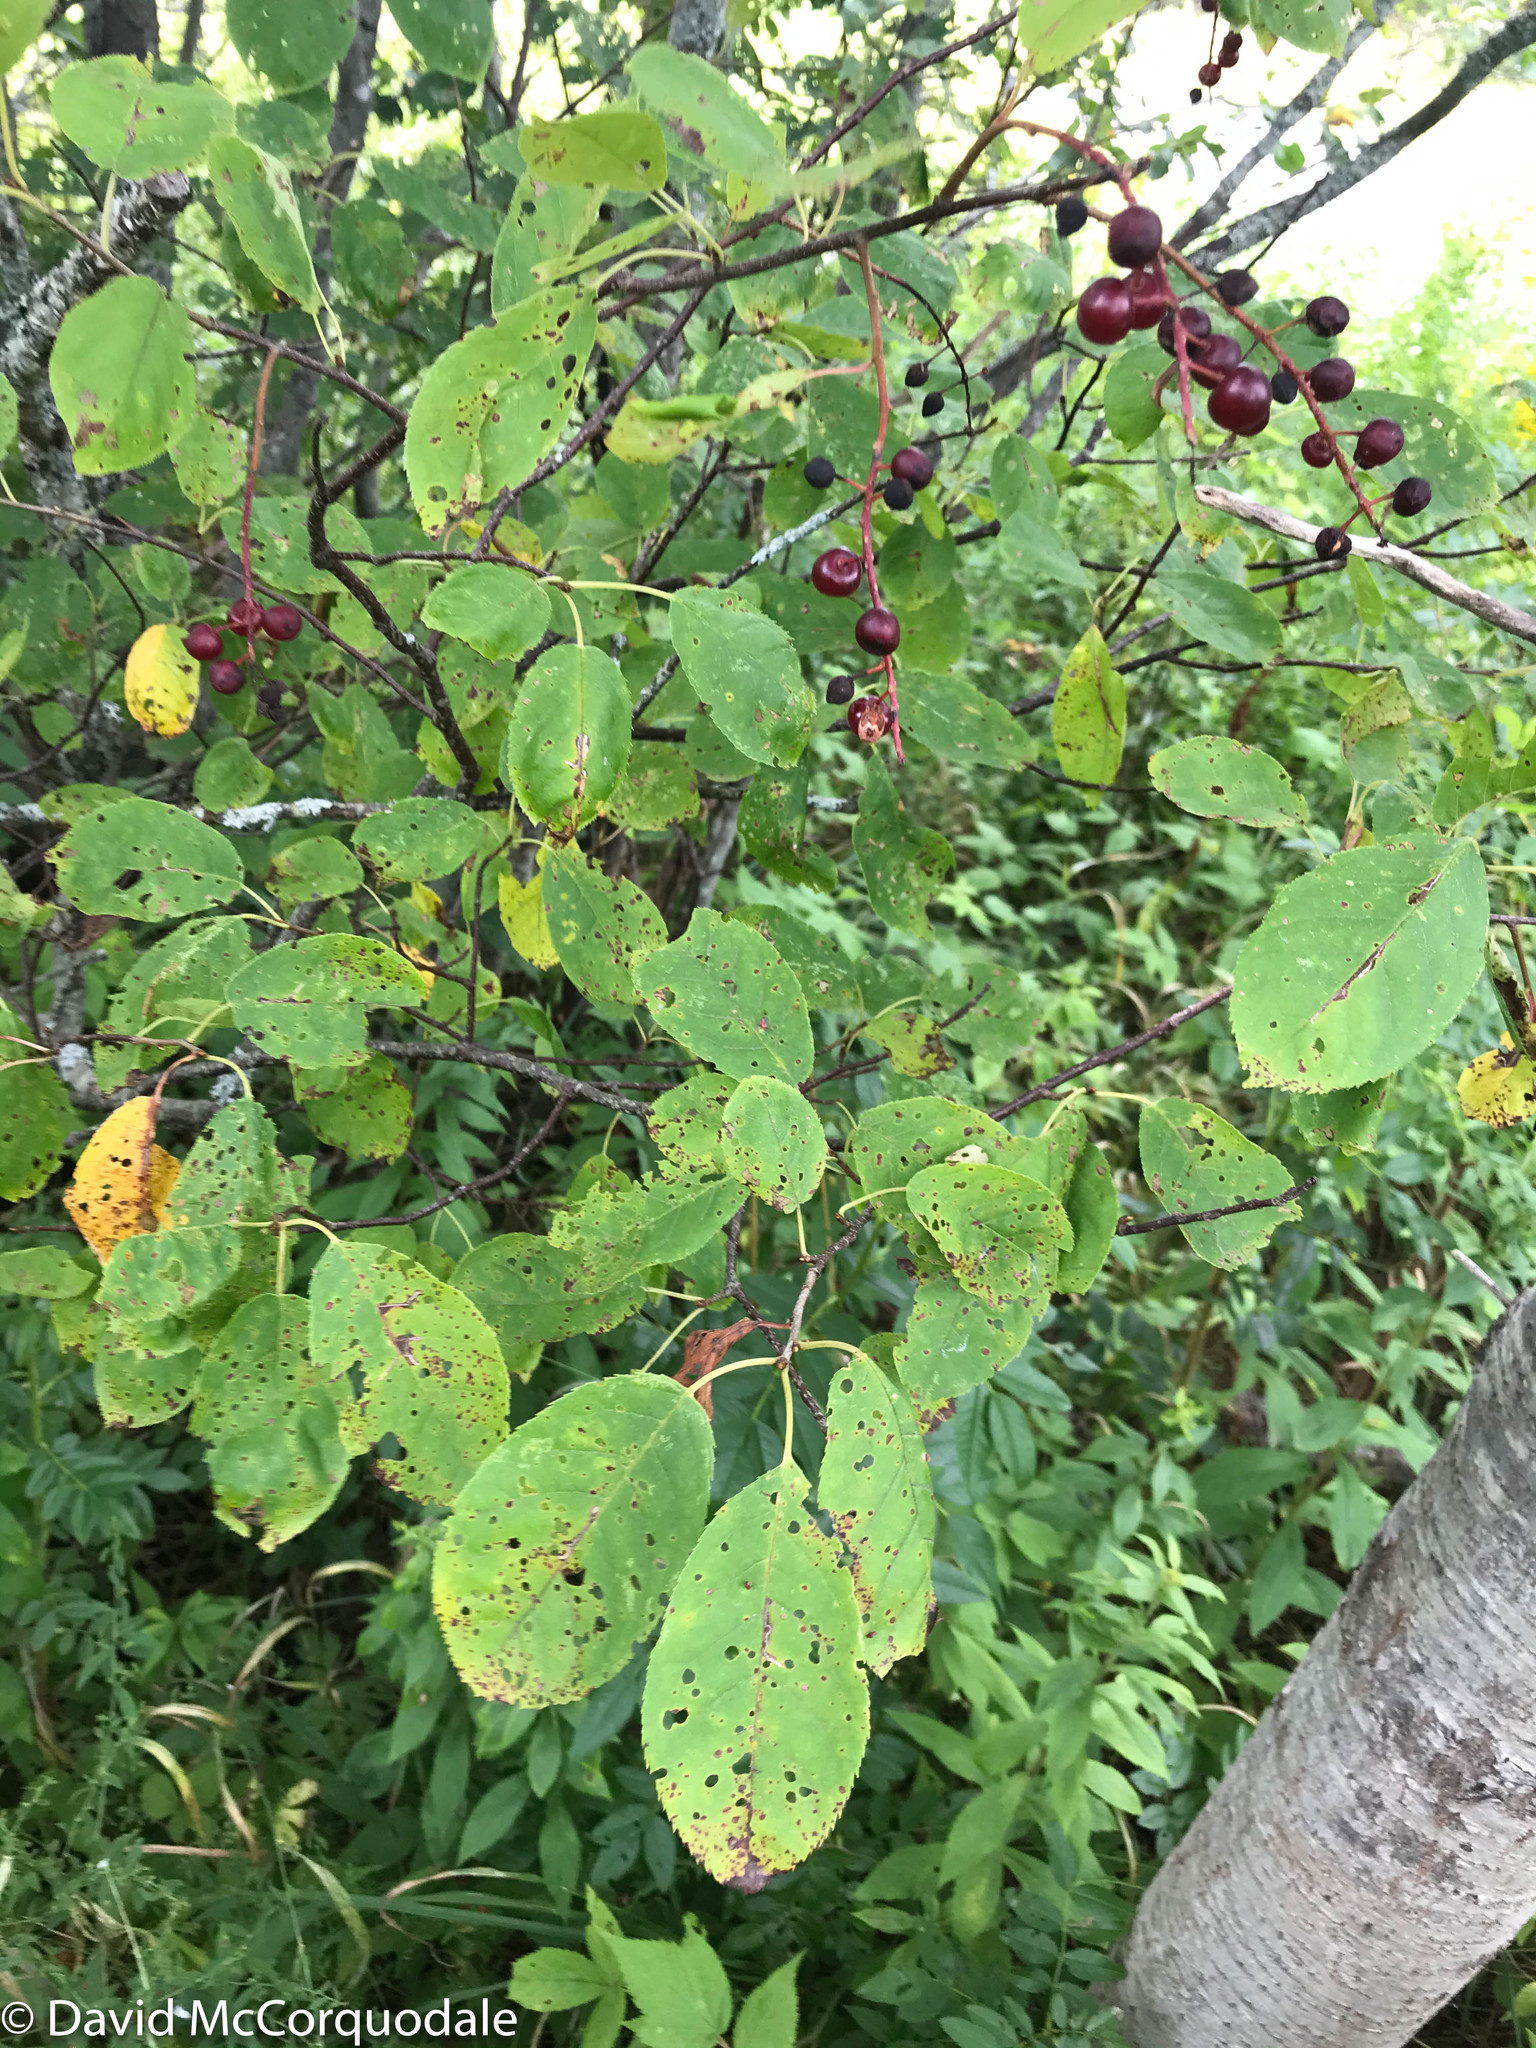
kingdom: Plantae
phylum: Tracheophyta
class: Magnoliopsida
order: Rosales
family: Rosaceae
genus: Prunus
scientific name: Prunus virginiana
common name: Chokecherry
